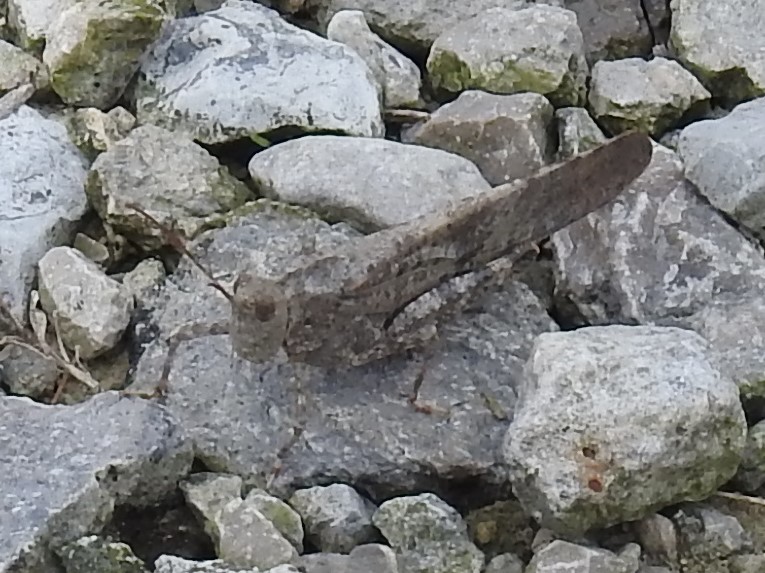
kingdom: Animalia
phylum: Arthropoda
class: Insecta
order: Orthoptera
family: Acrididae
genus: Dissosteira
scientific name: Dissosteira carolina
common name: Carolina grasshopper
